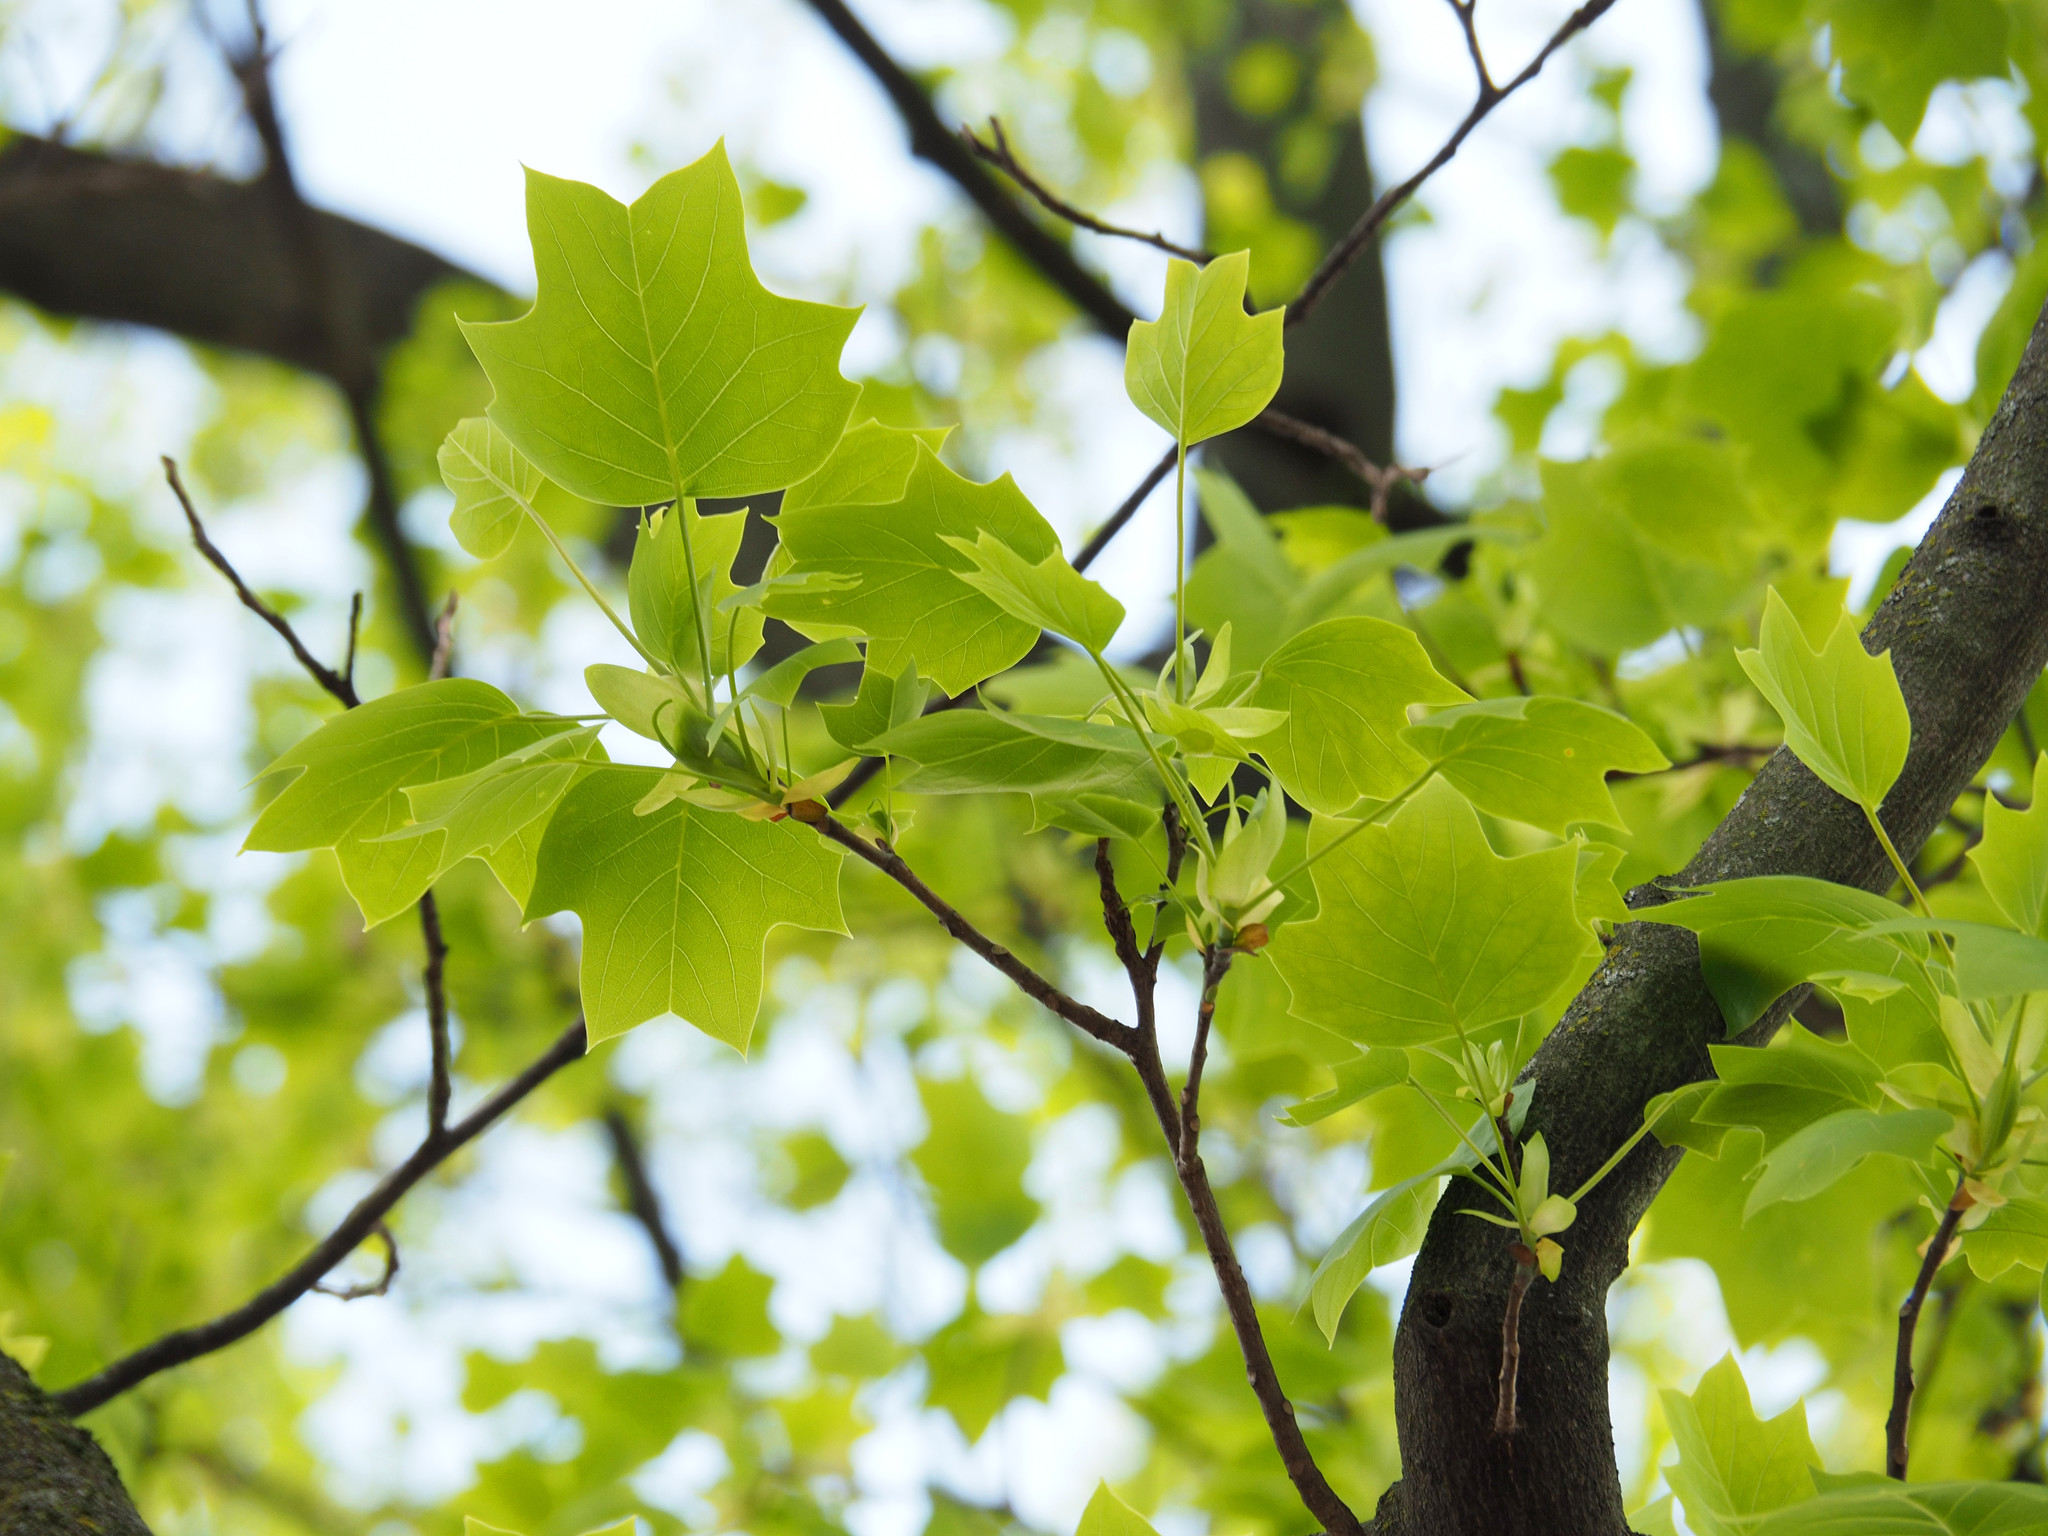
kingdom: Plantae
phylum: Tracheophyta
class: Magnoliopsida
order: Magnoliales
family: Magnoliaceae
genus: Liriodendron
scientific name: Liriodendron tulipifera
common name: Tulip tree
